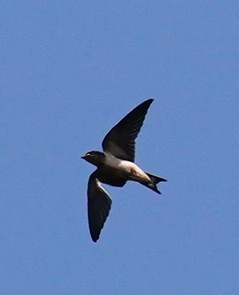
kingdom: Animalia
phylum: Chordata
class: Aves
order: Passeriformes
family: Hirundinidae
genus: Hirundo
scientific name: Hirundo rustica
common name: Barn swallow
